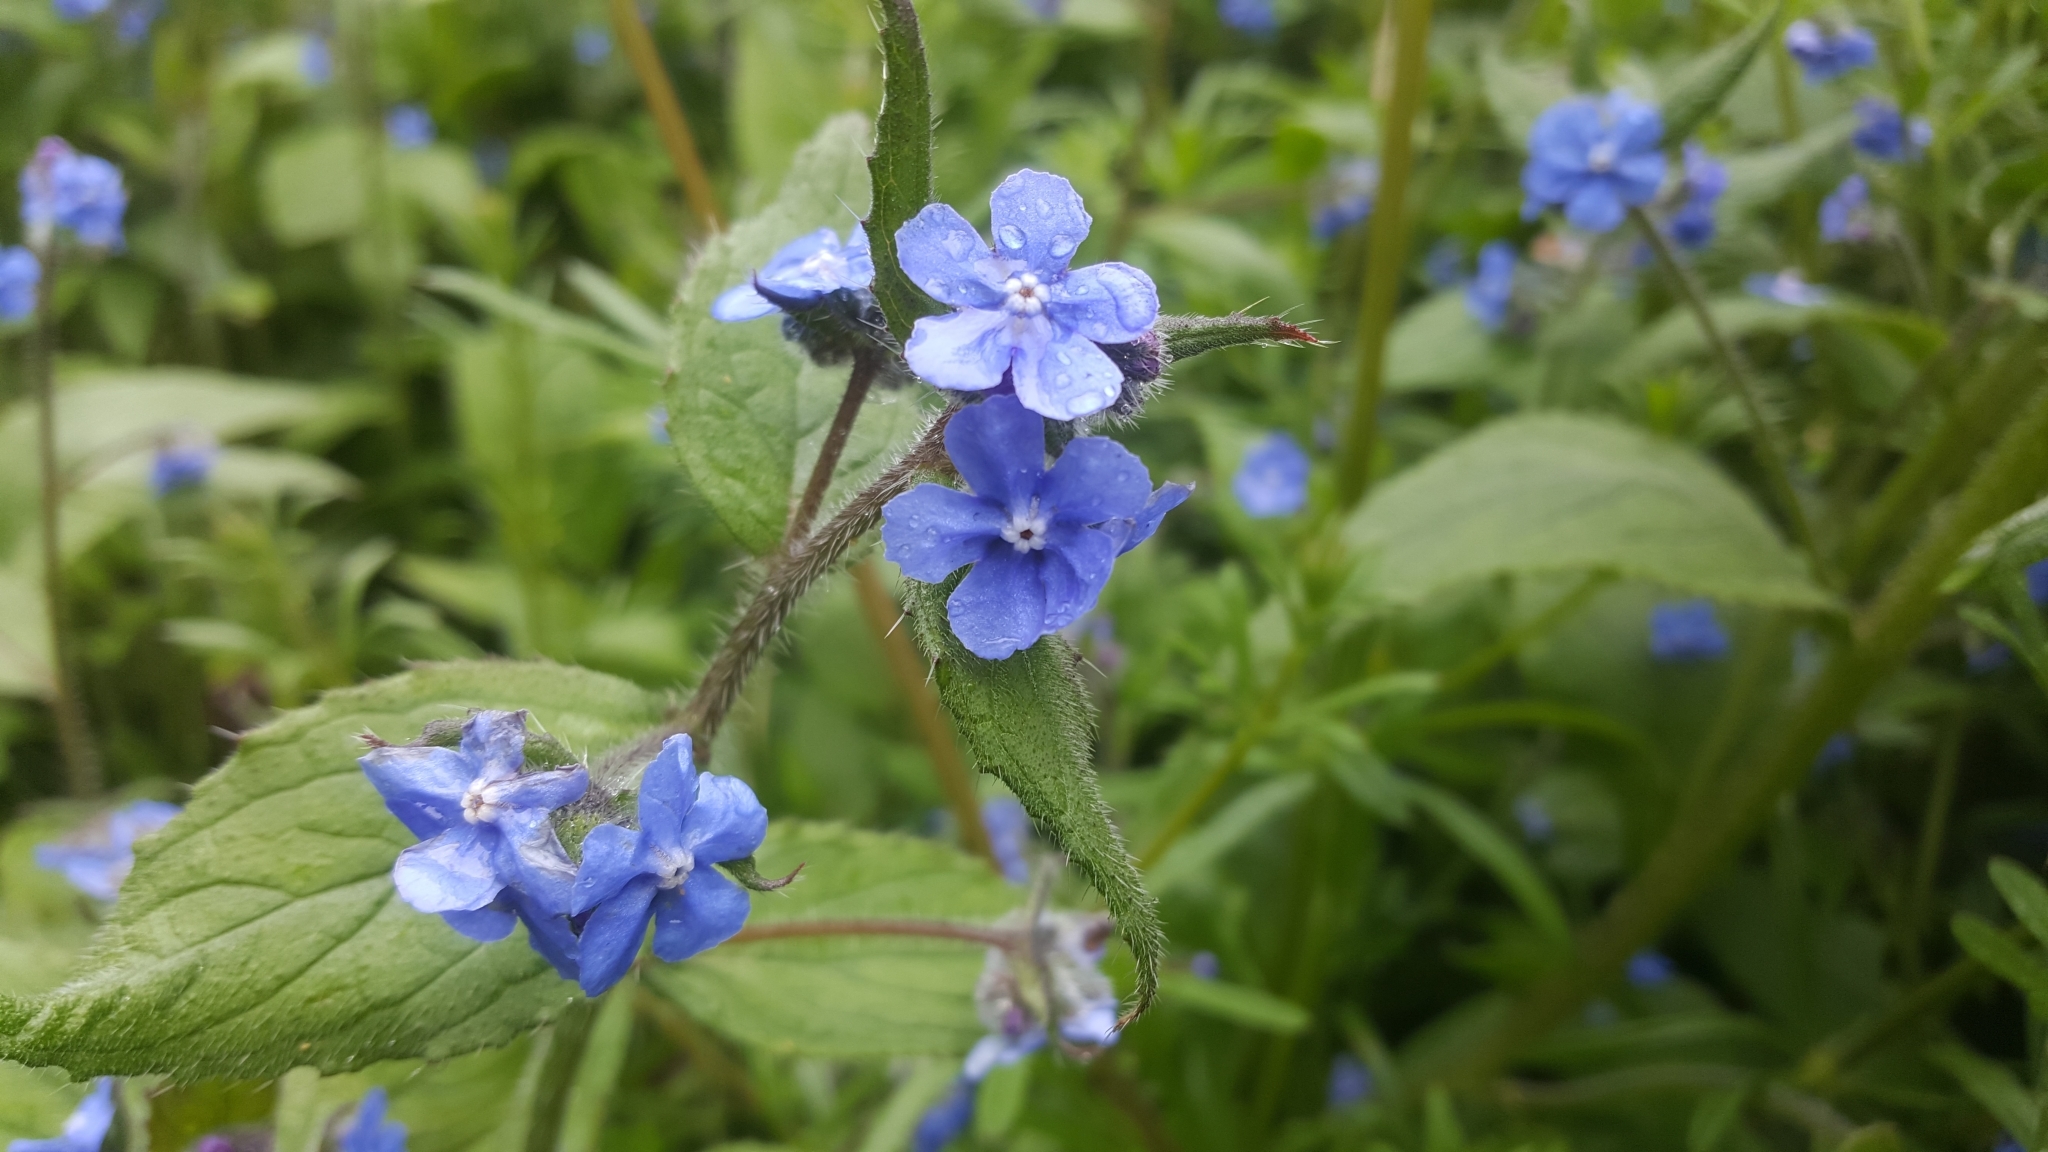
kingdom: Plantae
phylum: Tracheophyta
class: Magnoliopsida
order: Boraginales
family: Boraginaceae
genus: Pentaglottis
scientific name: Pentaglottis sempervirens
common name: Green alkanet
